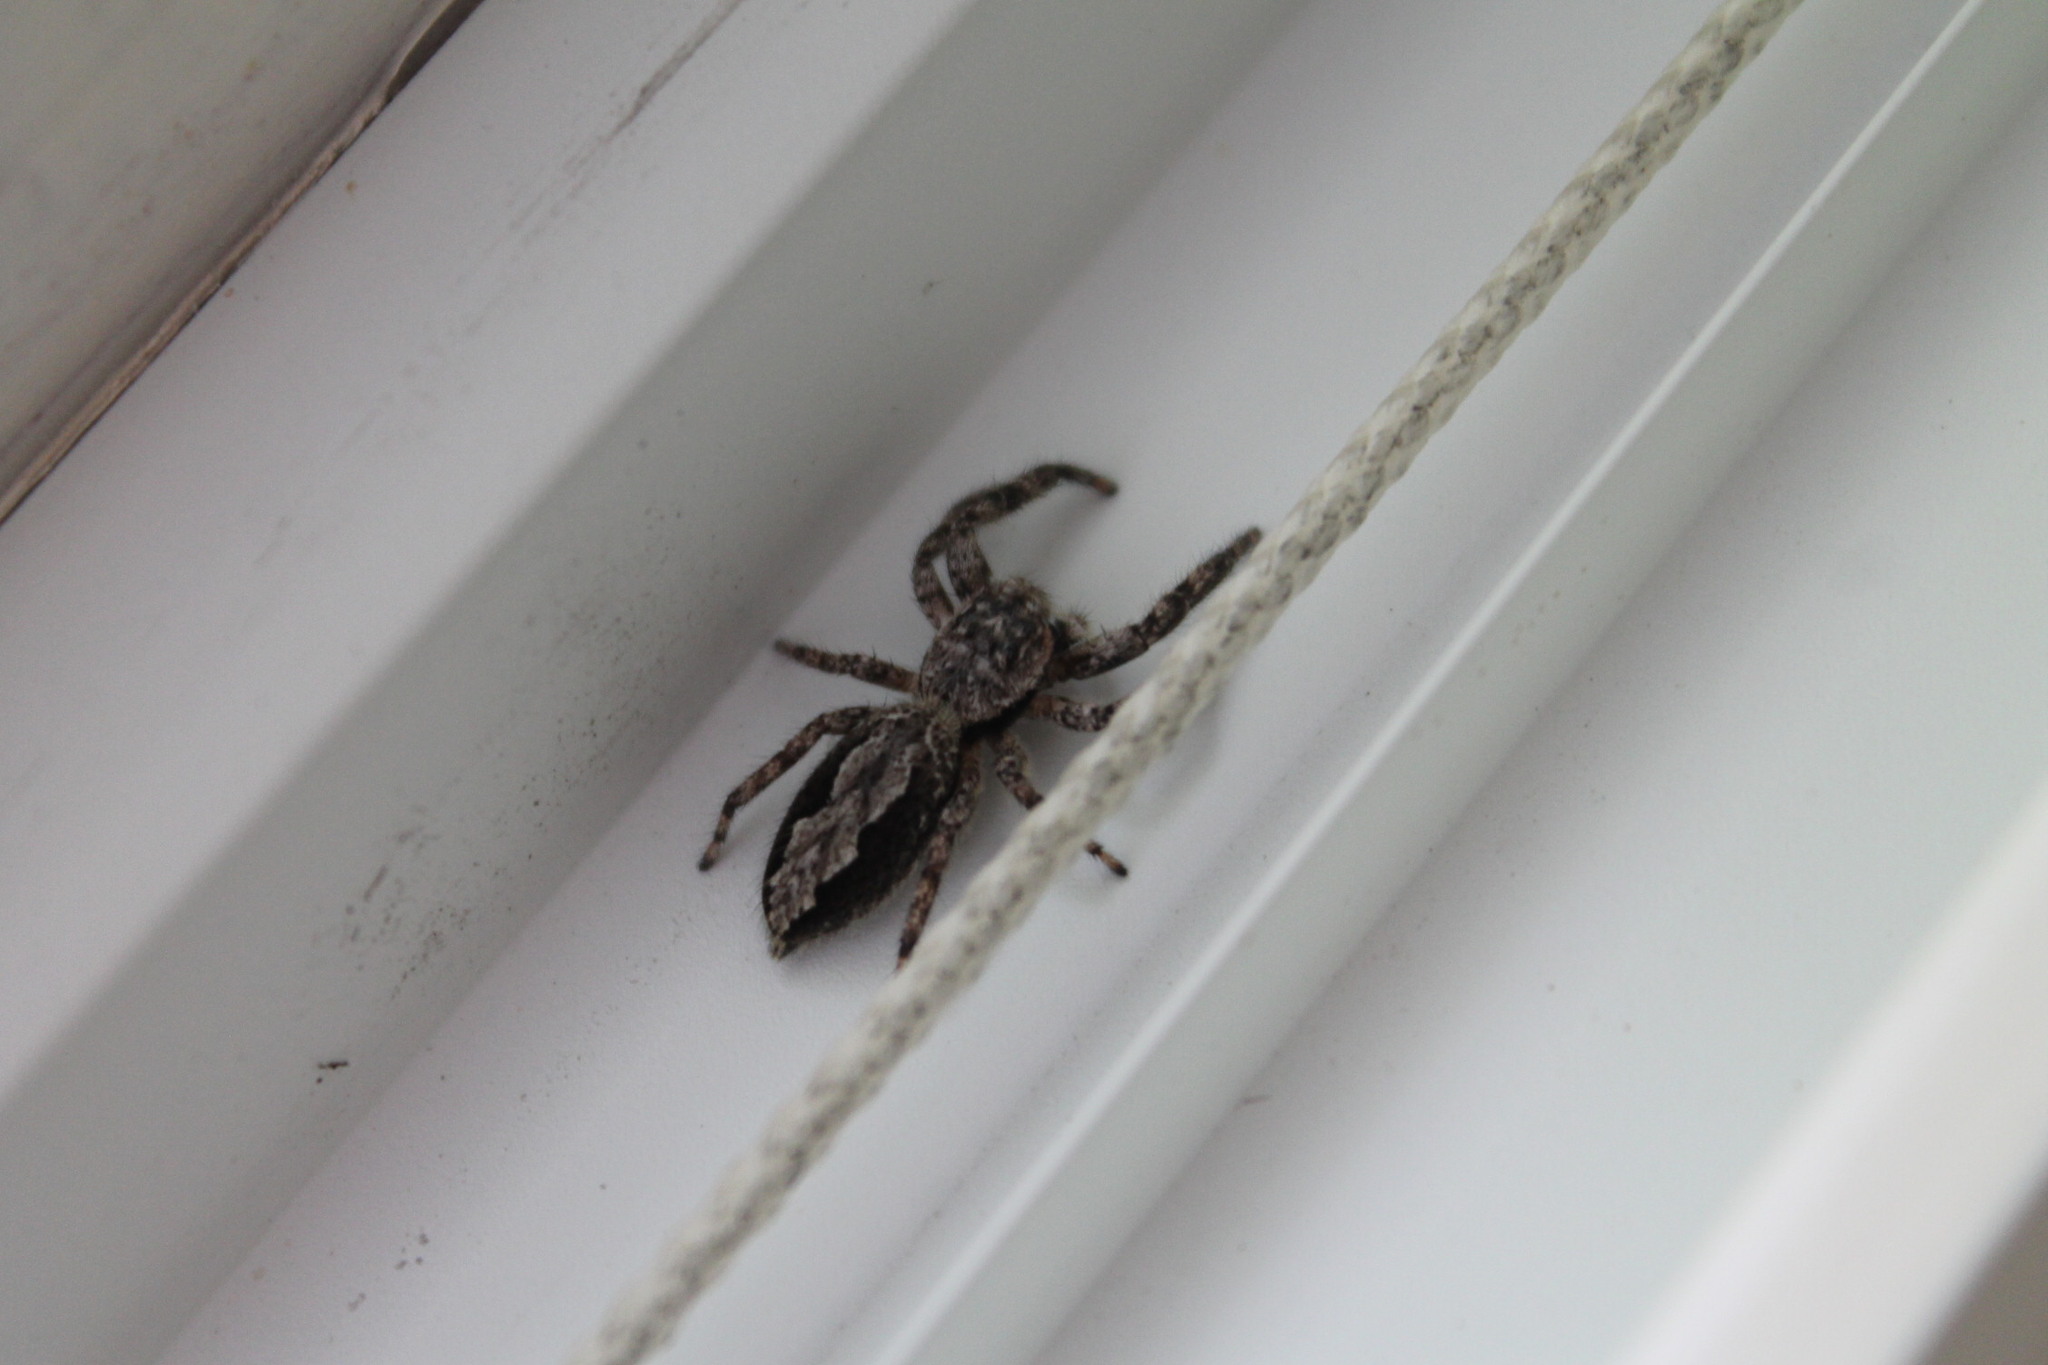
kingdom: Animalia
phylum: Arthropoda
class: Arachnida
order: Araneae
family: Salticidae
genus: Platycryptus
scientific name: Platycryptus undatus
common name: Tan jumping spider
